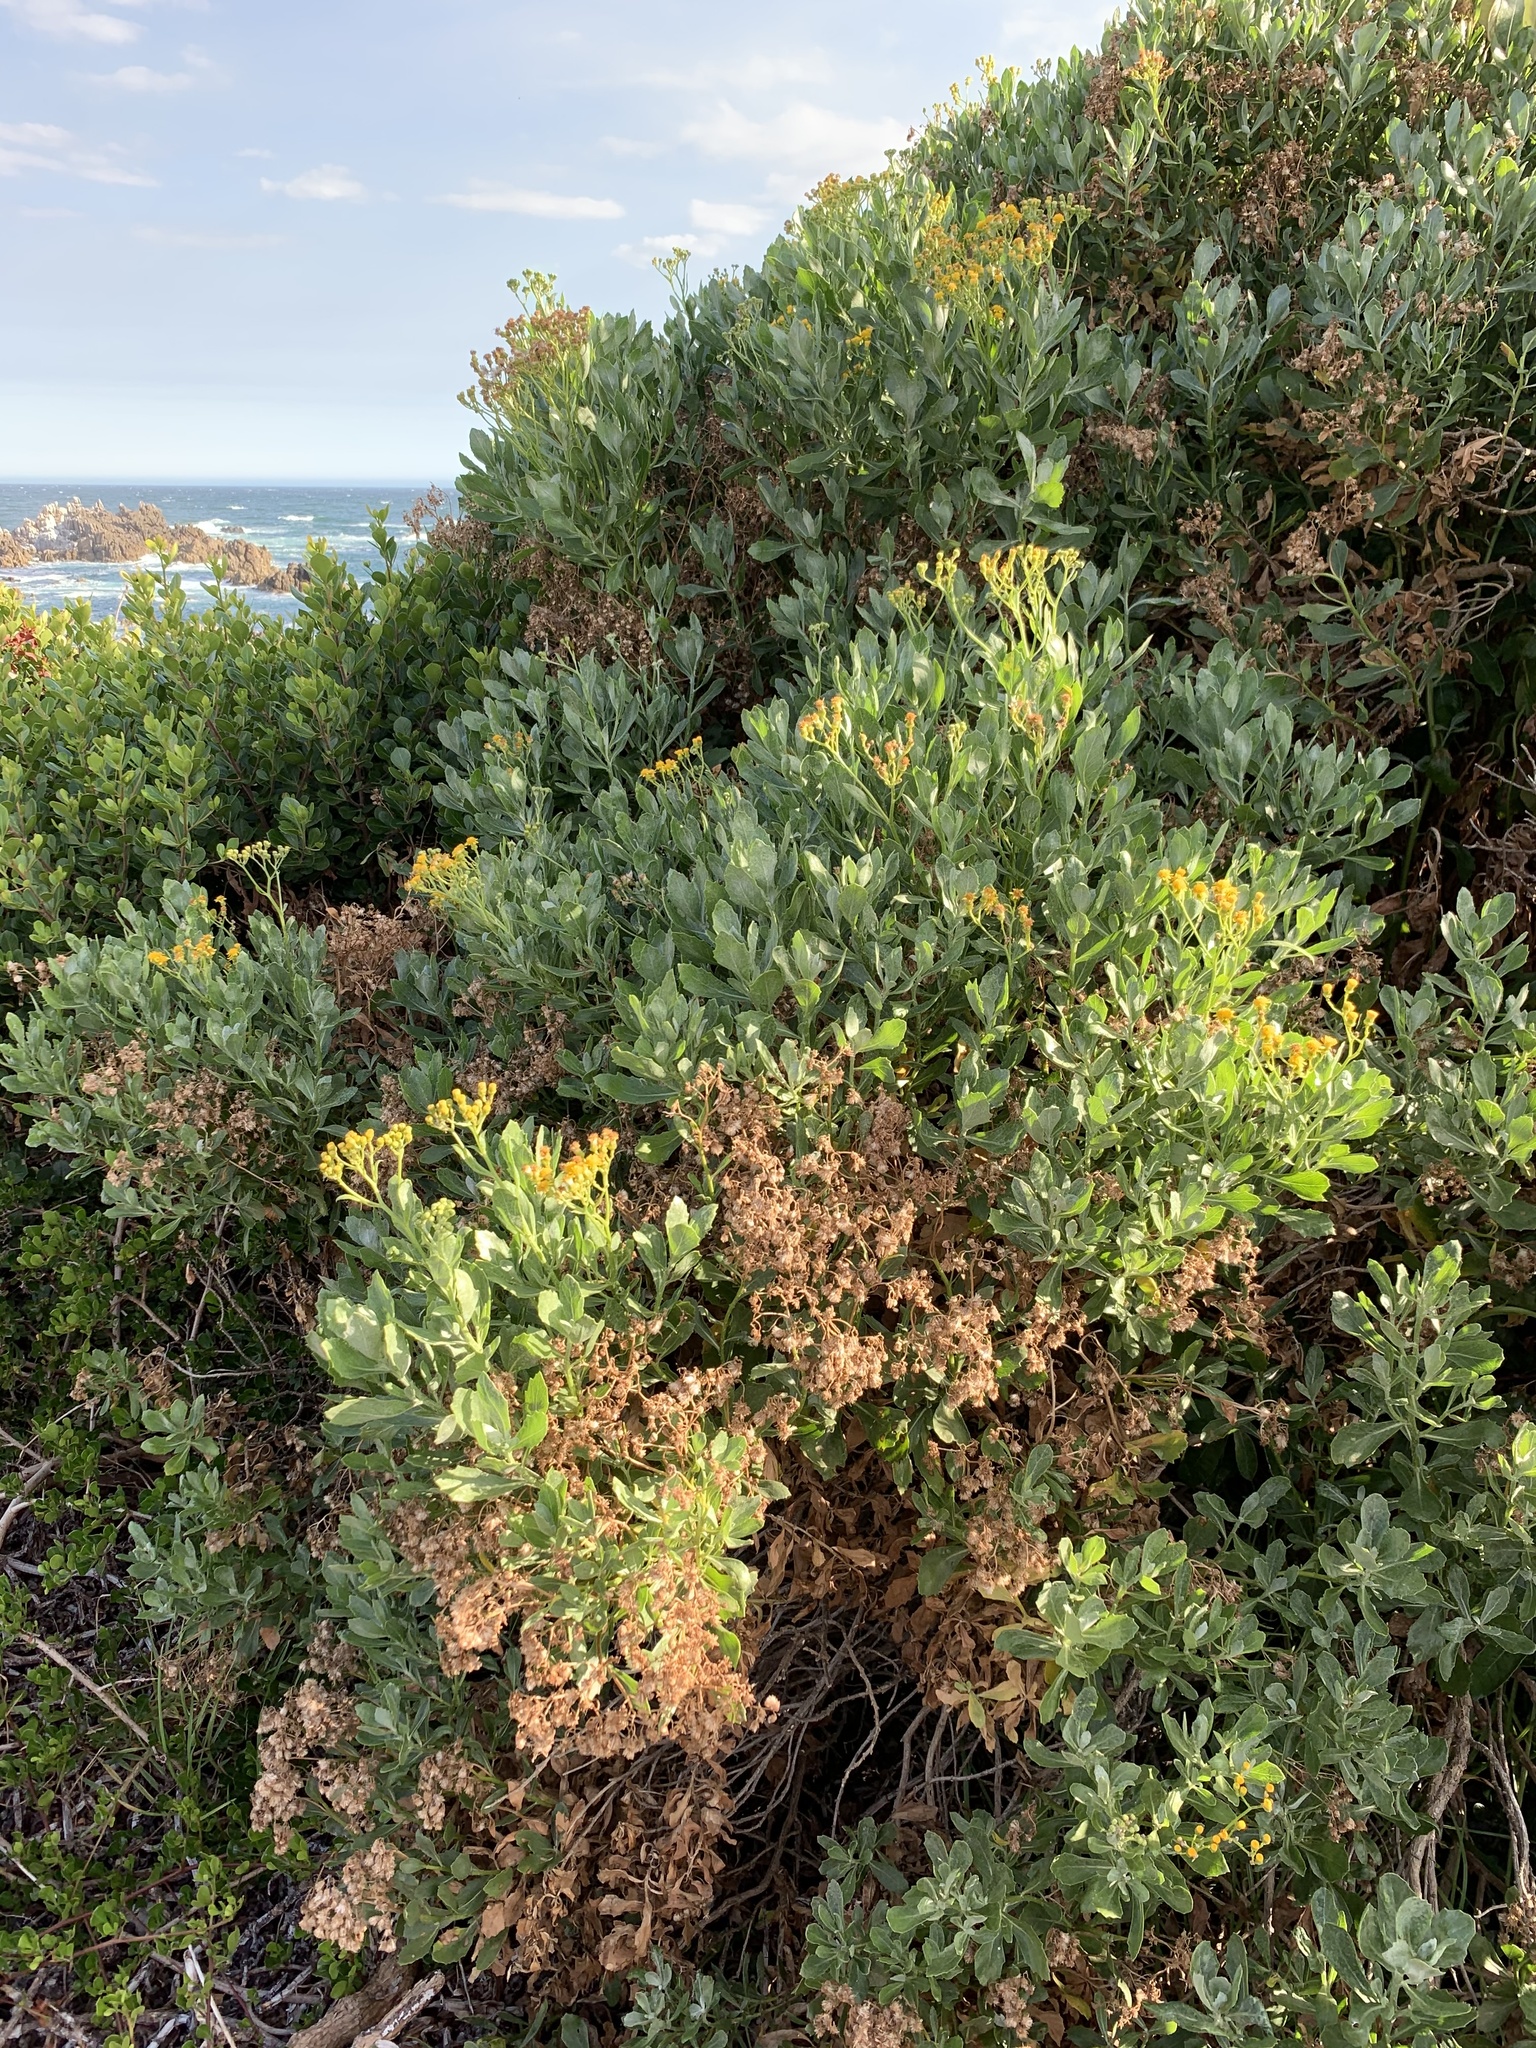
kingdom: Plantae
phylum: Tracheophyta
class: Magnoliopsida
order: Asterales
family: Asteraceae
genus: Senecio
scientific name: Senecio halimifolius
